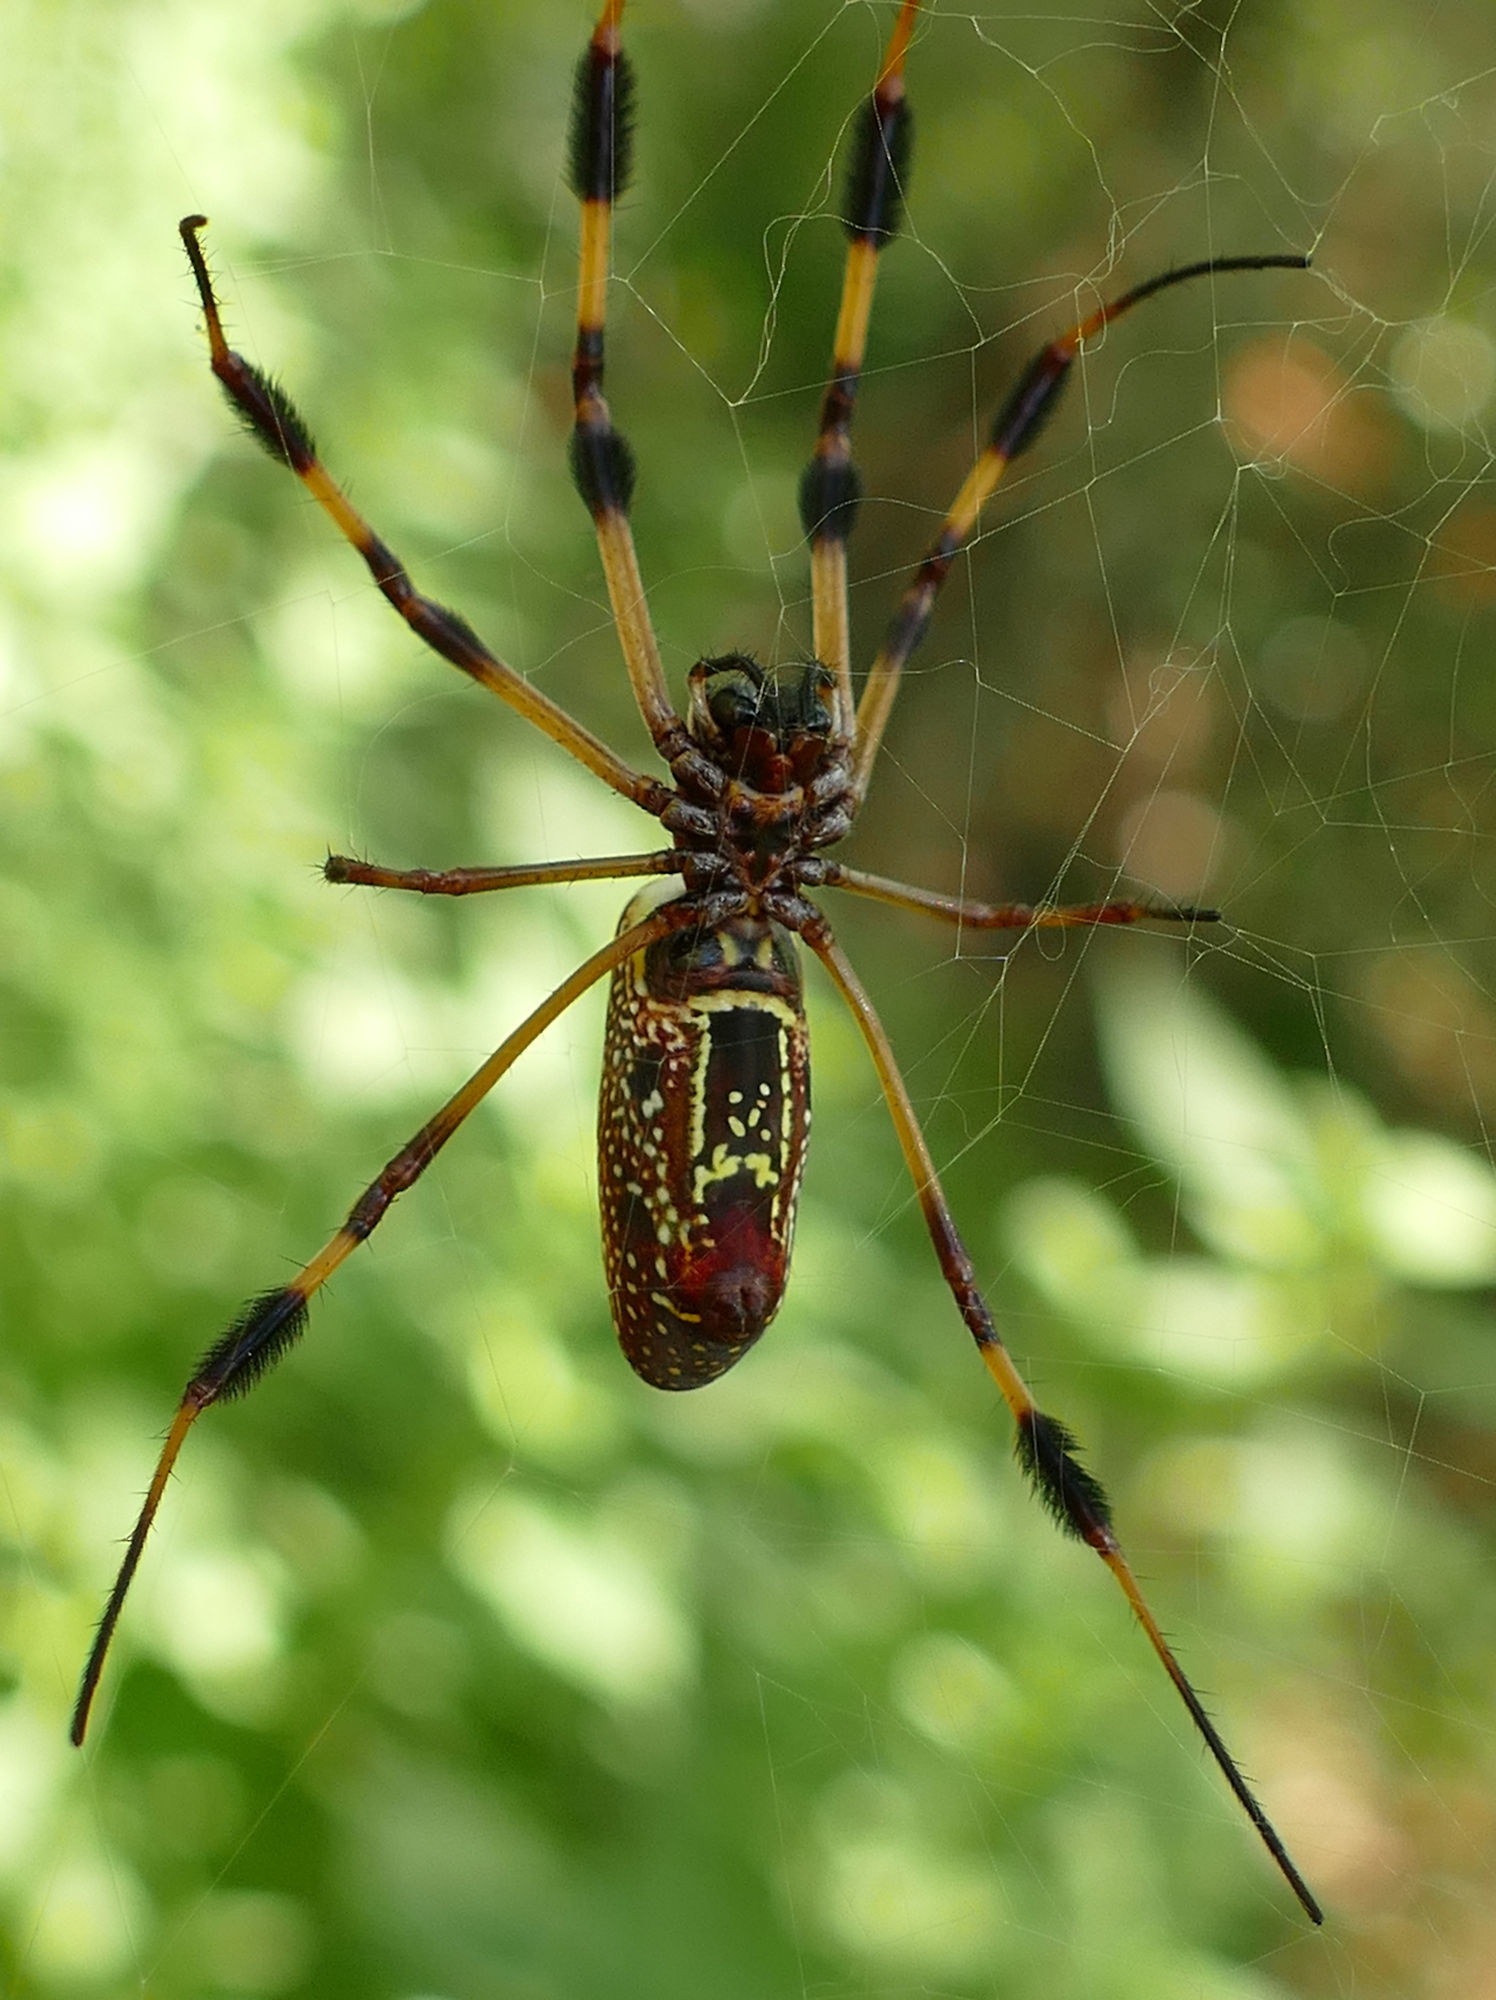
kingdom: Animalia
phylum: Arthropoda
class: Arachnida
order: Araneae
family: Araneidae
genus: Trichonephila
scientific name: Trichonephila clavipes
